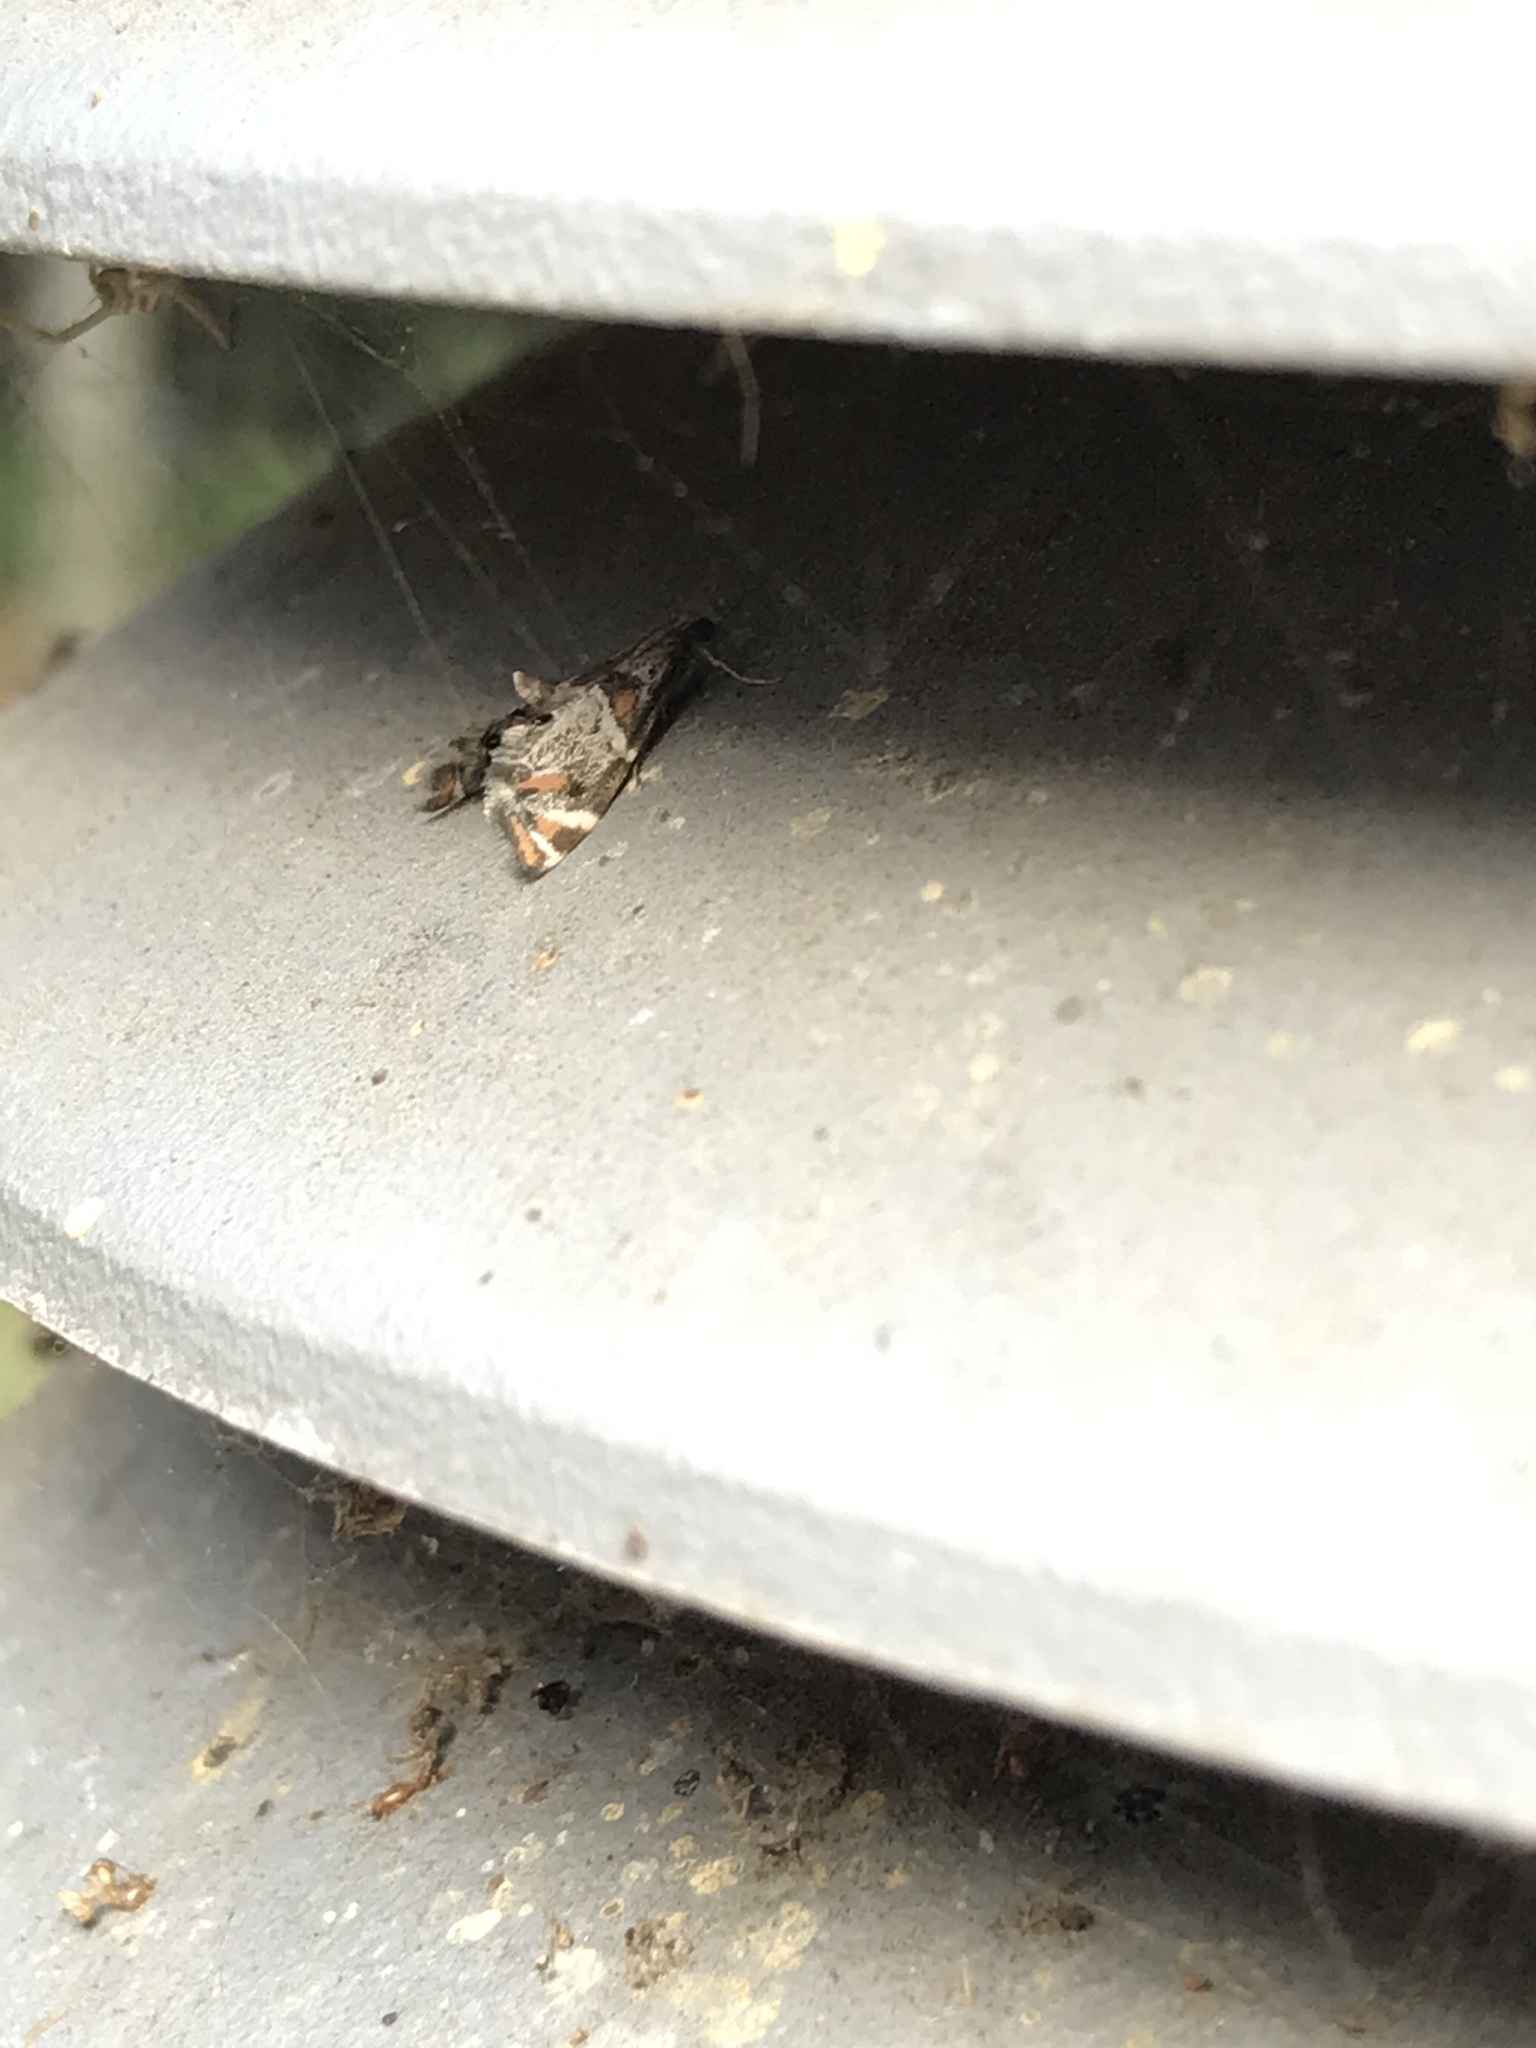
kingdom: Animalia
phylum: Arthropoda
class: Insecta
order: Lepidoptera
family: Crambidae
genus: Petrophila
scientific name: Petrophila jaliscalis
